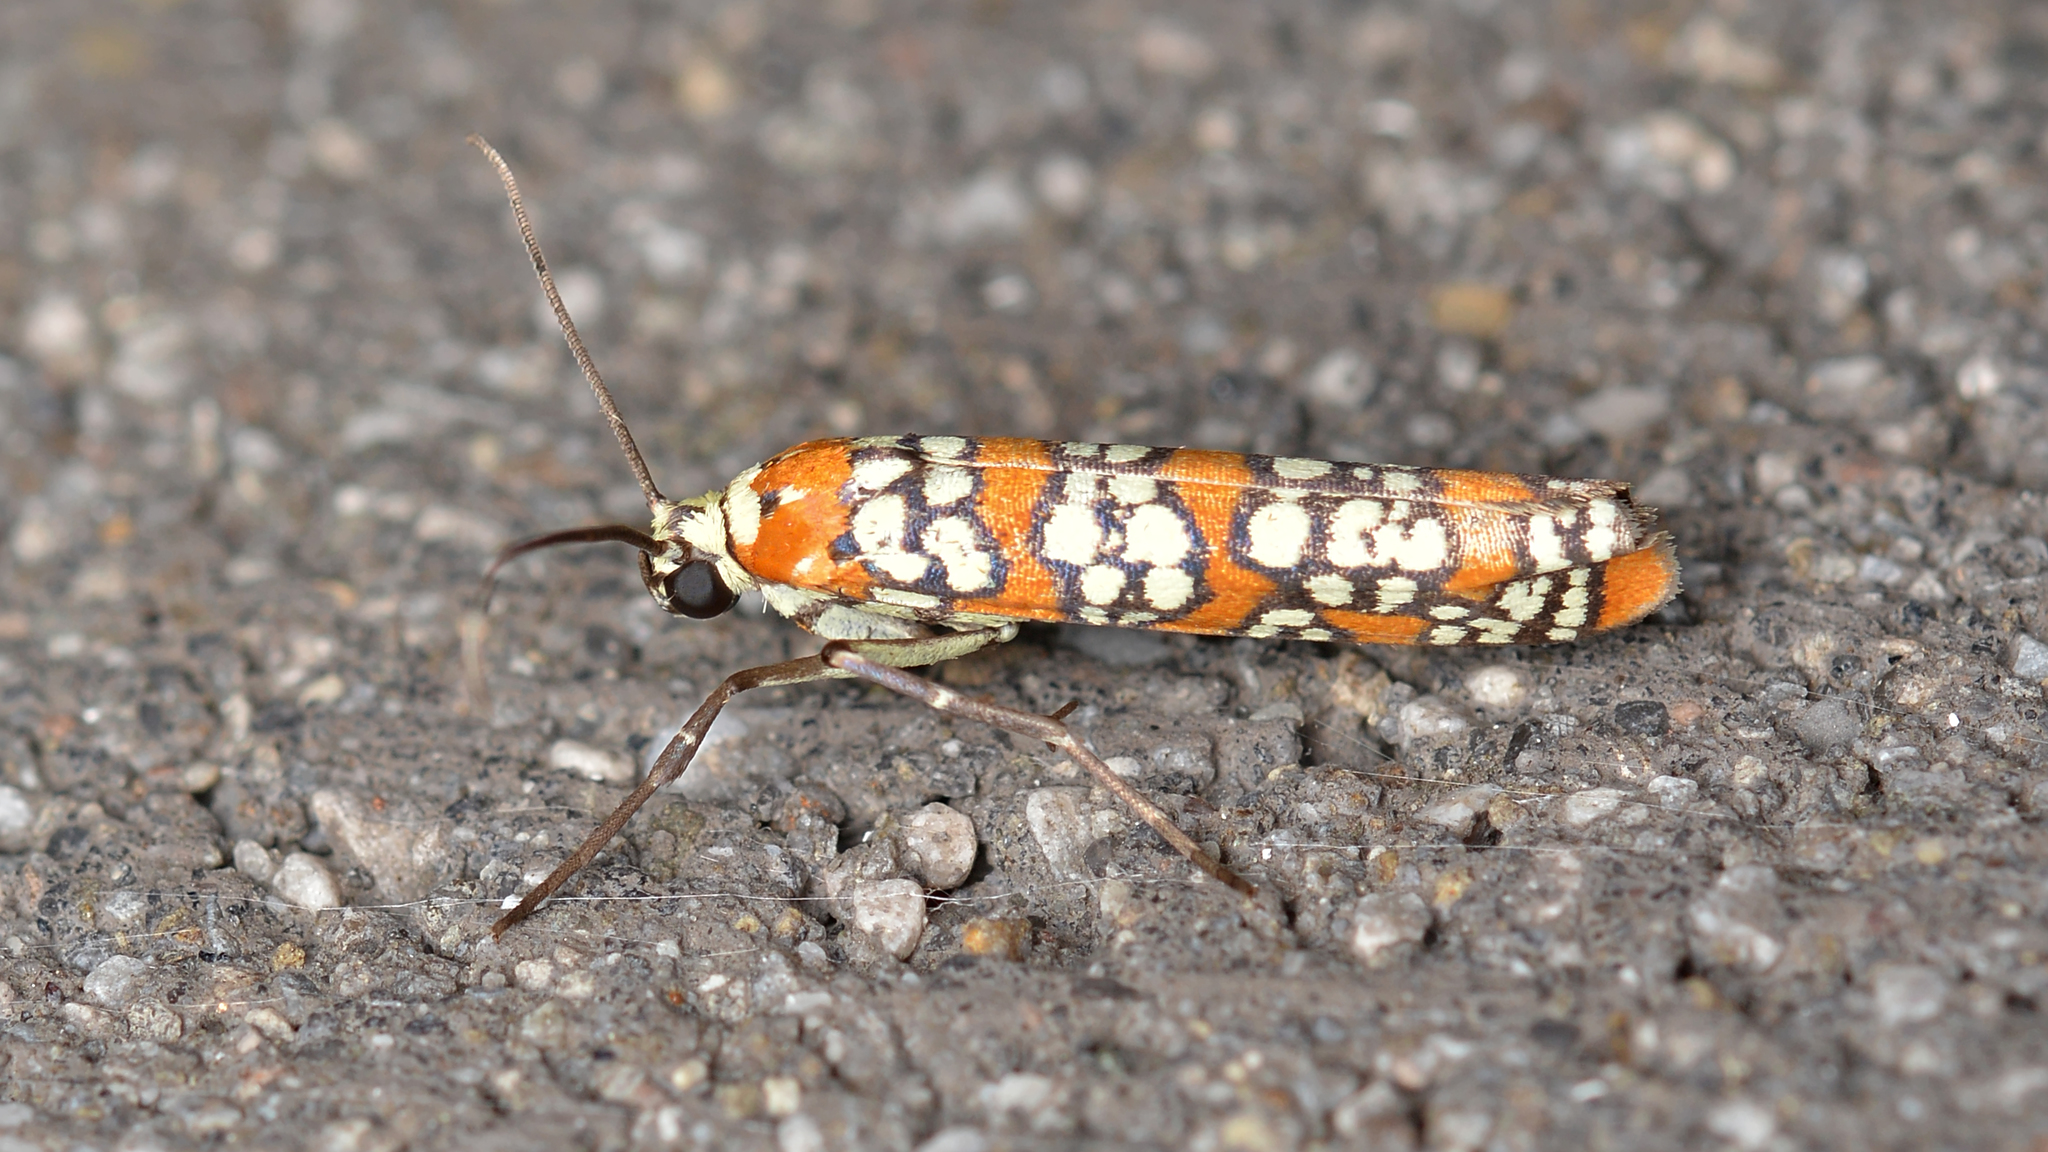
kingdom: Animalia
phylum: Arthropoda
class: Insecta
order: Lepidoptera
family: Attevidae
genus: Atteva
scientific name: Atteva punctella
